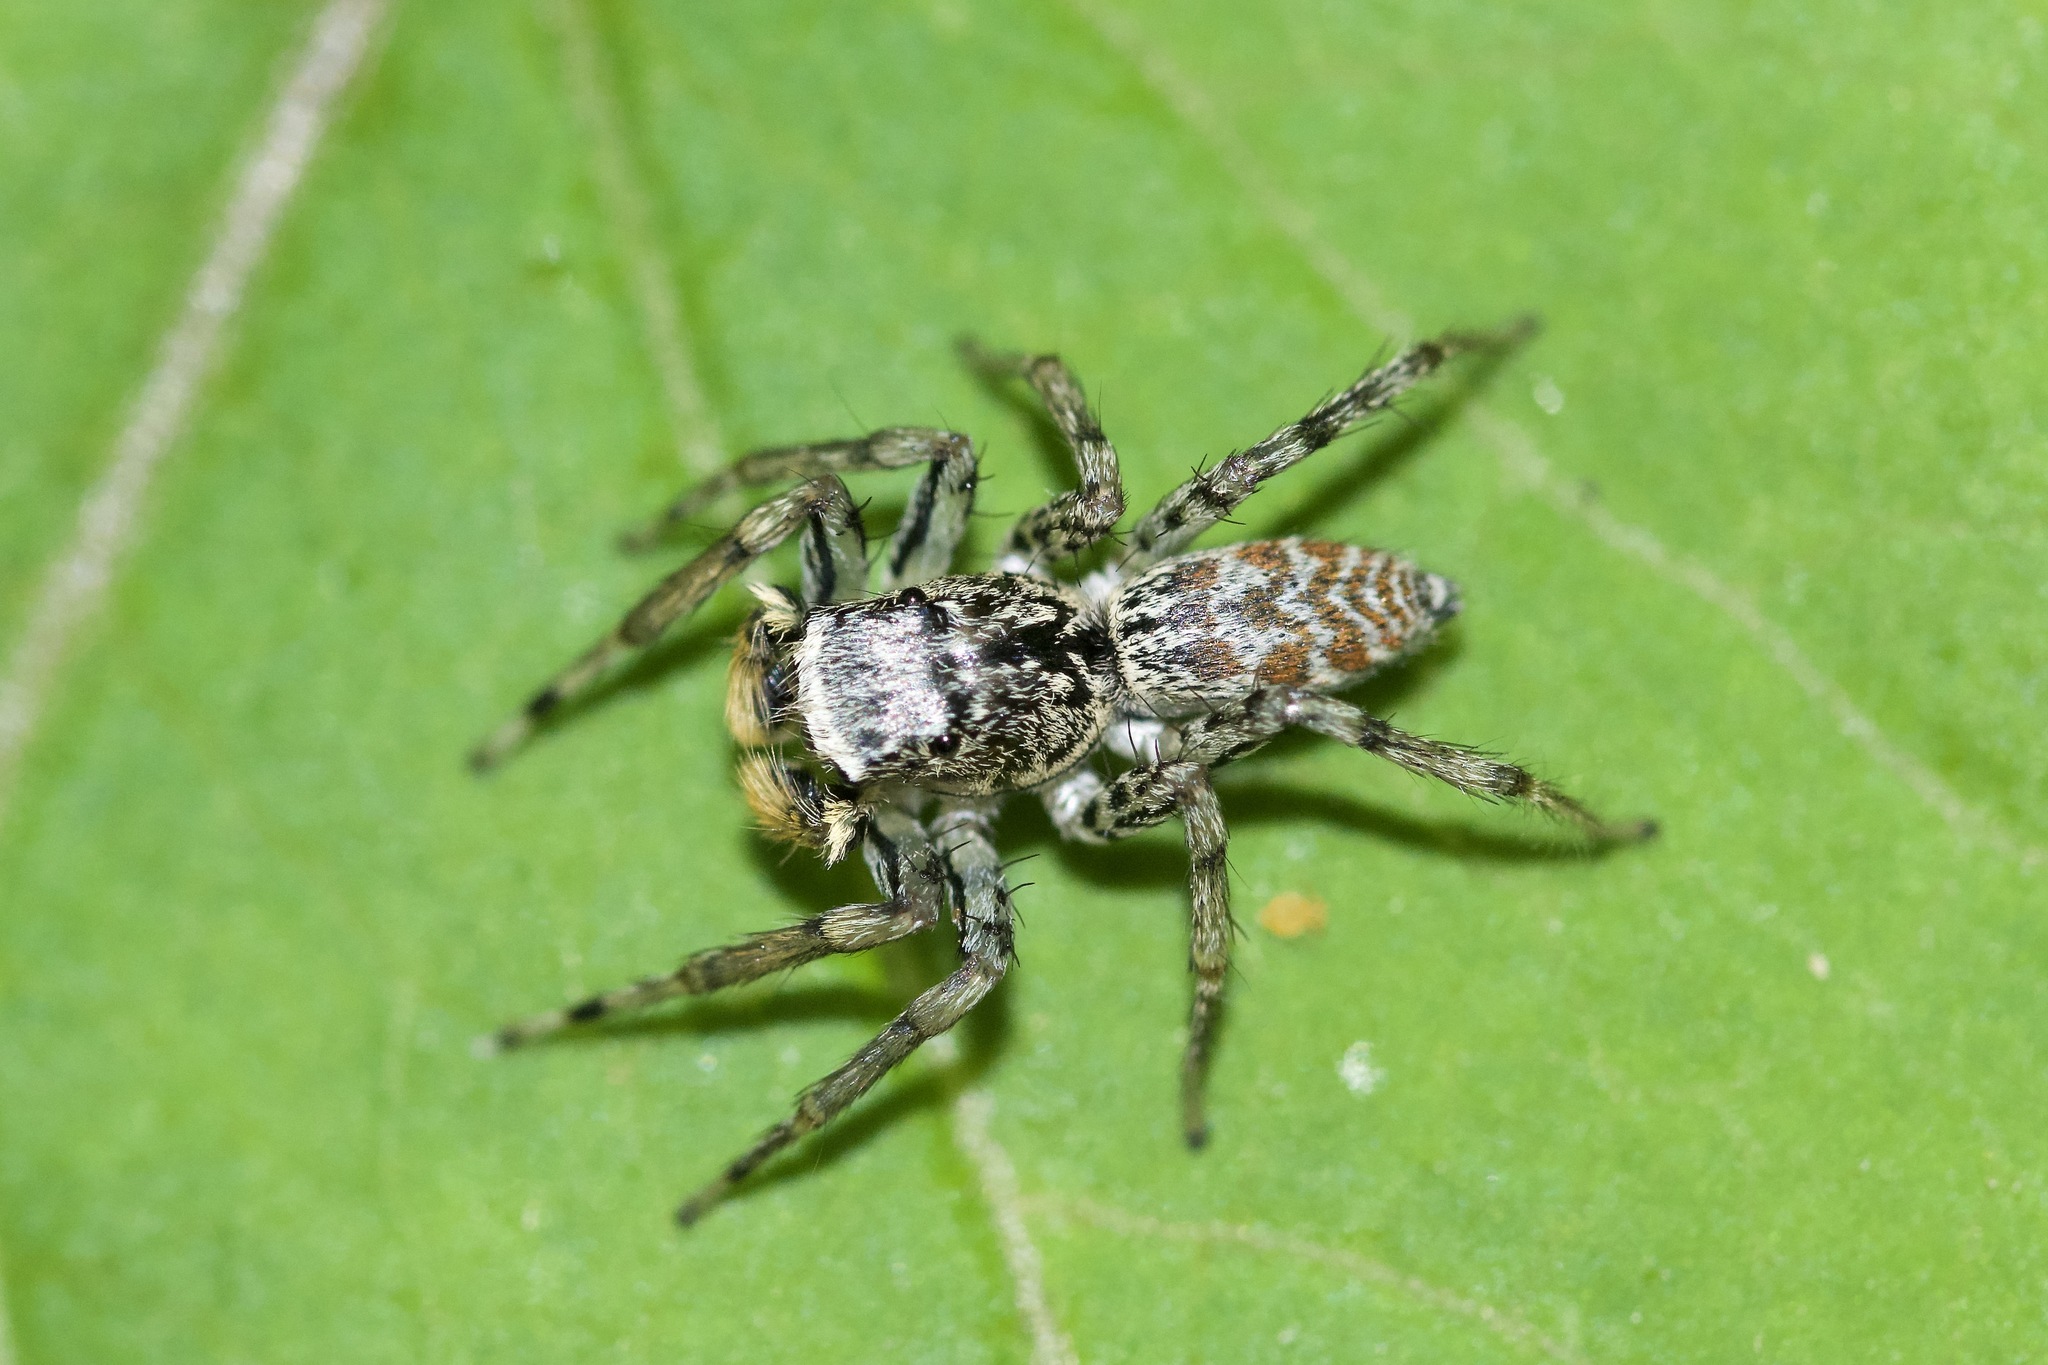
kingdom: Animalia
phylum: Arthropoda
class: Arachnida
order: Araneae
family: Salticidae
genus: Maevia
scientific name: Maevia inclemens
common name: Dimorphic jumper
